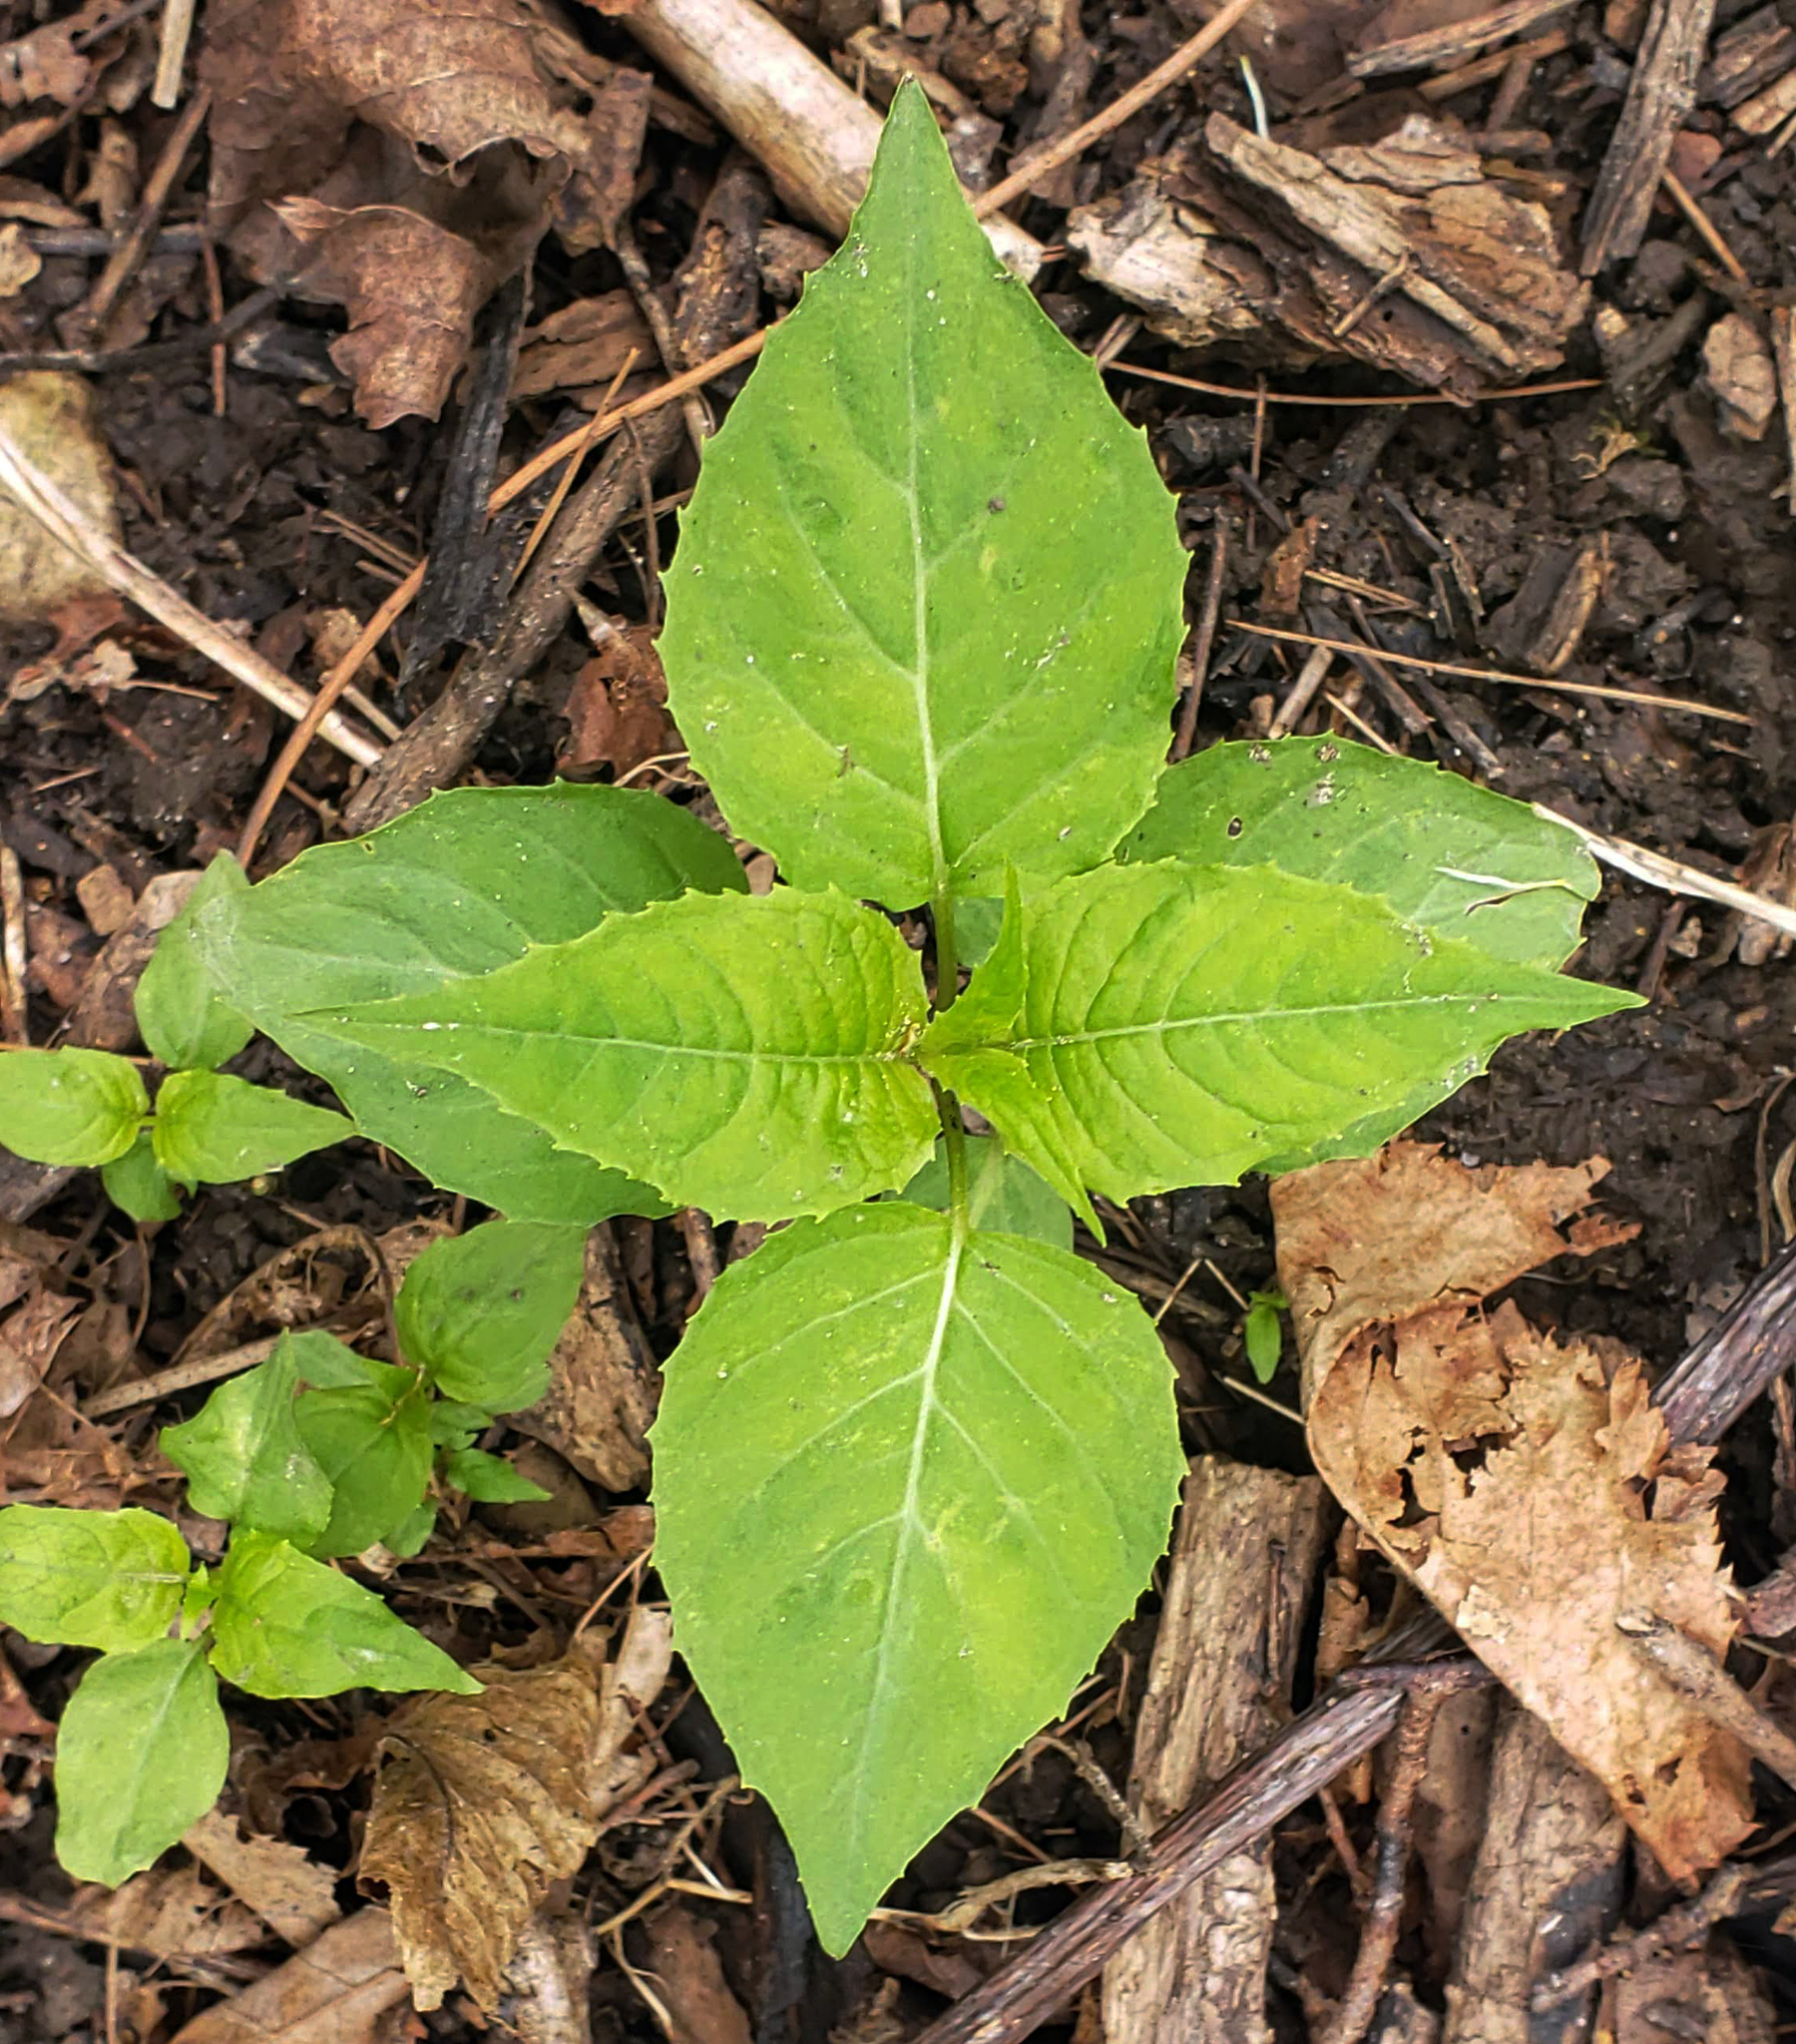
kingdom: Plantae
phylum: Tracheophyta
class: Magnoliopsida
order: Myrtales
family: Onagraceae
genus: Circaea
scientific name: Circaea canadensis
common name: Broad-leaved enchanter's nightshade
